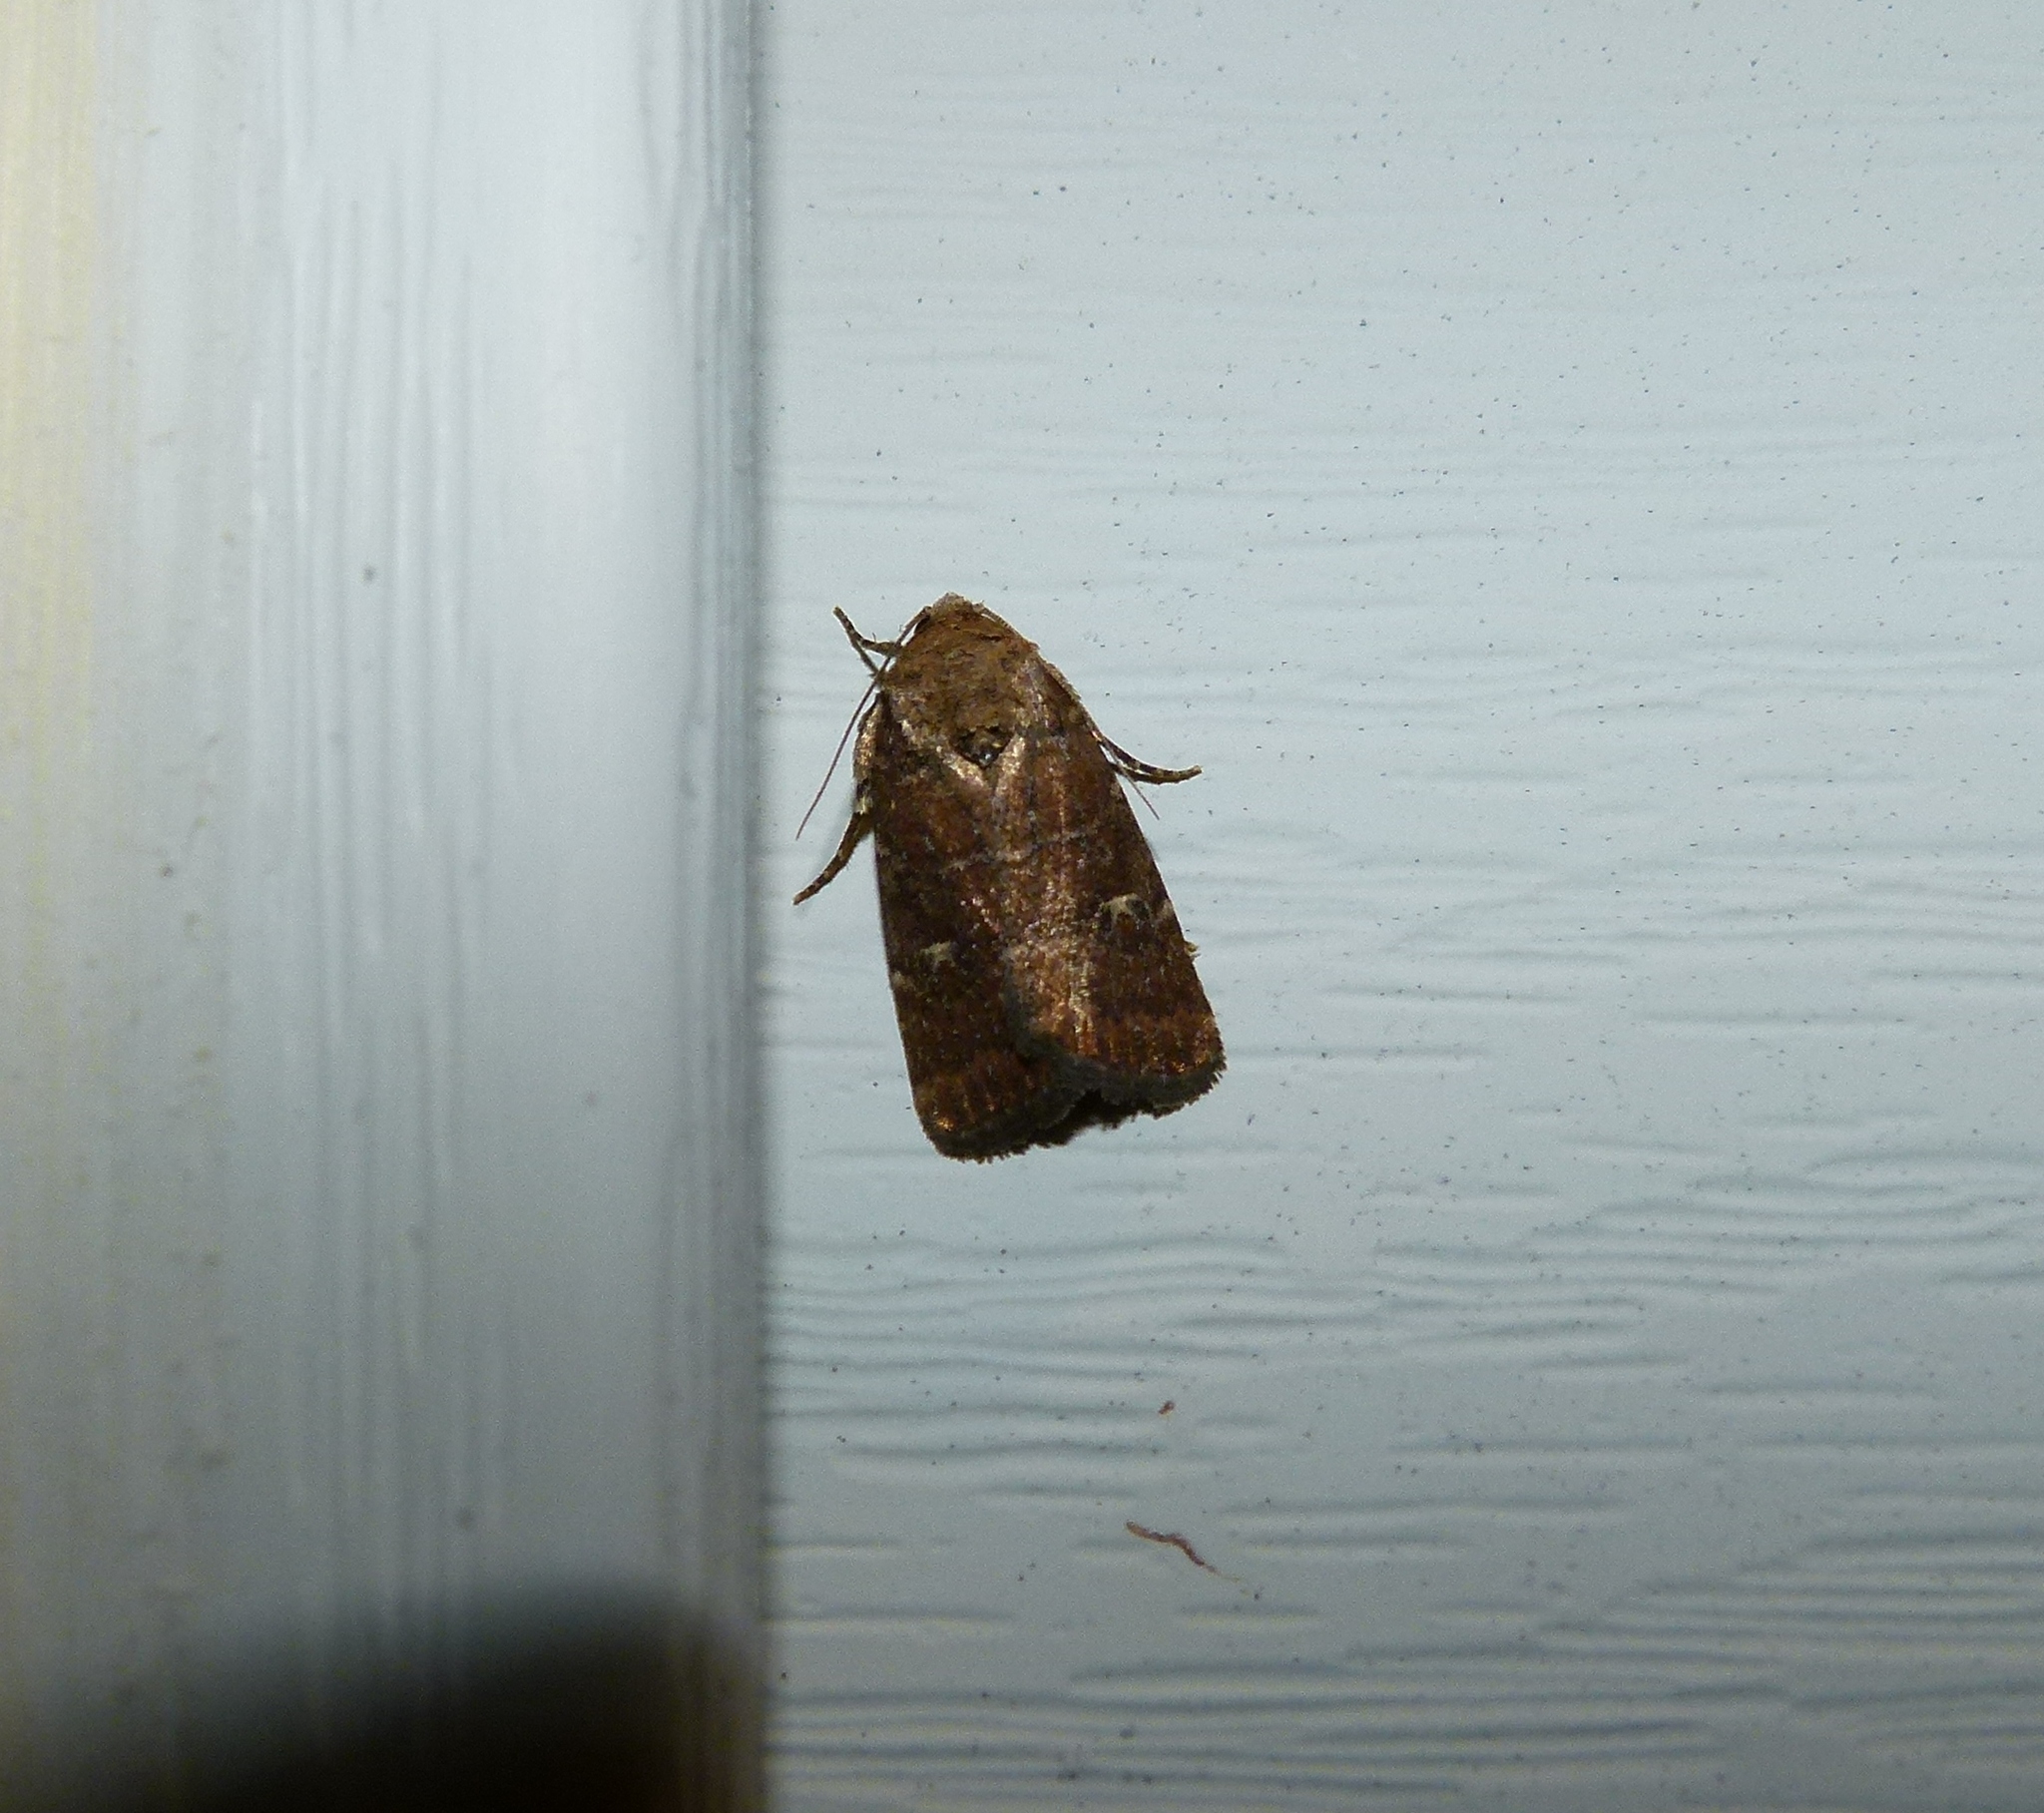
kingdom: Animalia
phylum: Arthropoda
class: Insecta
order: Lepidoptera
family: Noctuidae
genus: Elaphria
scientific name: Elaphria grata
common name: Grateful midget moth
